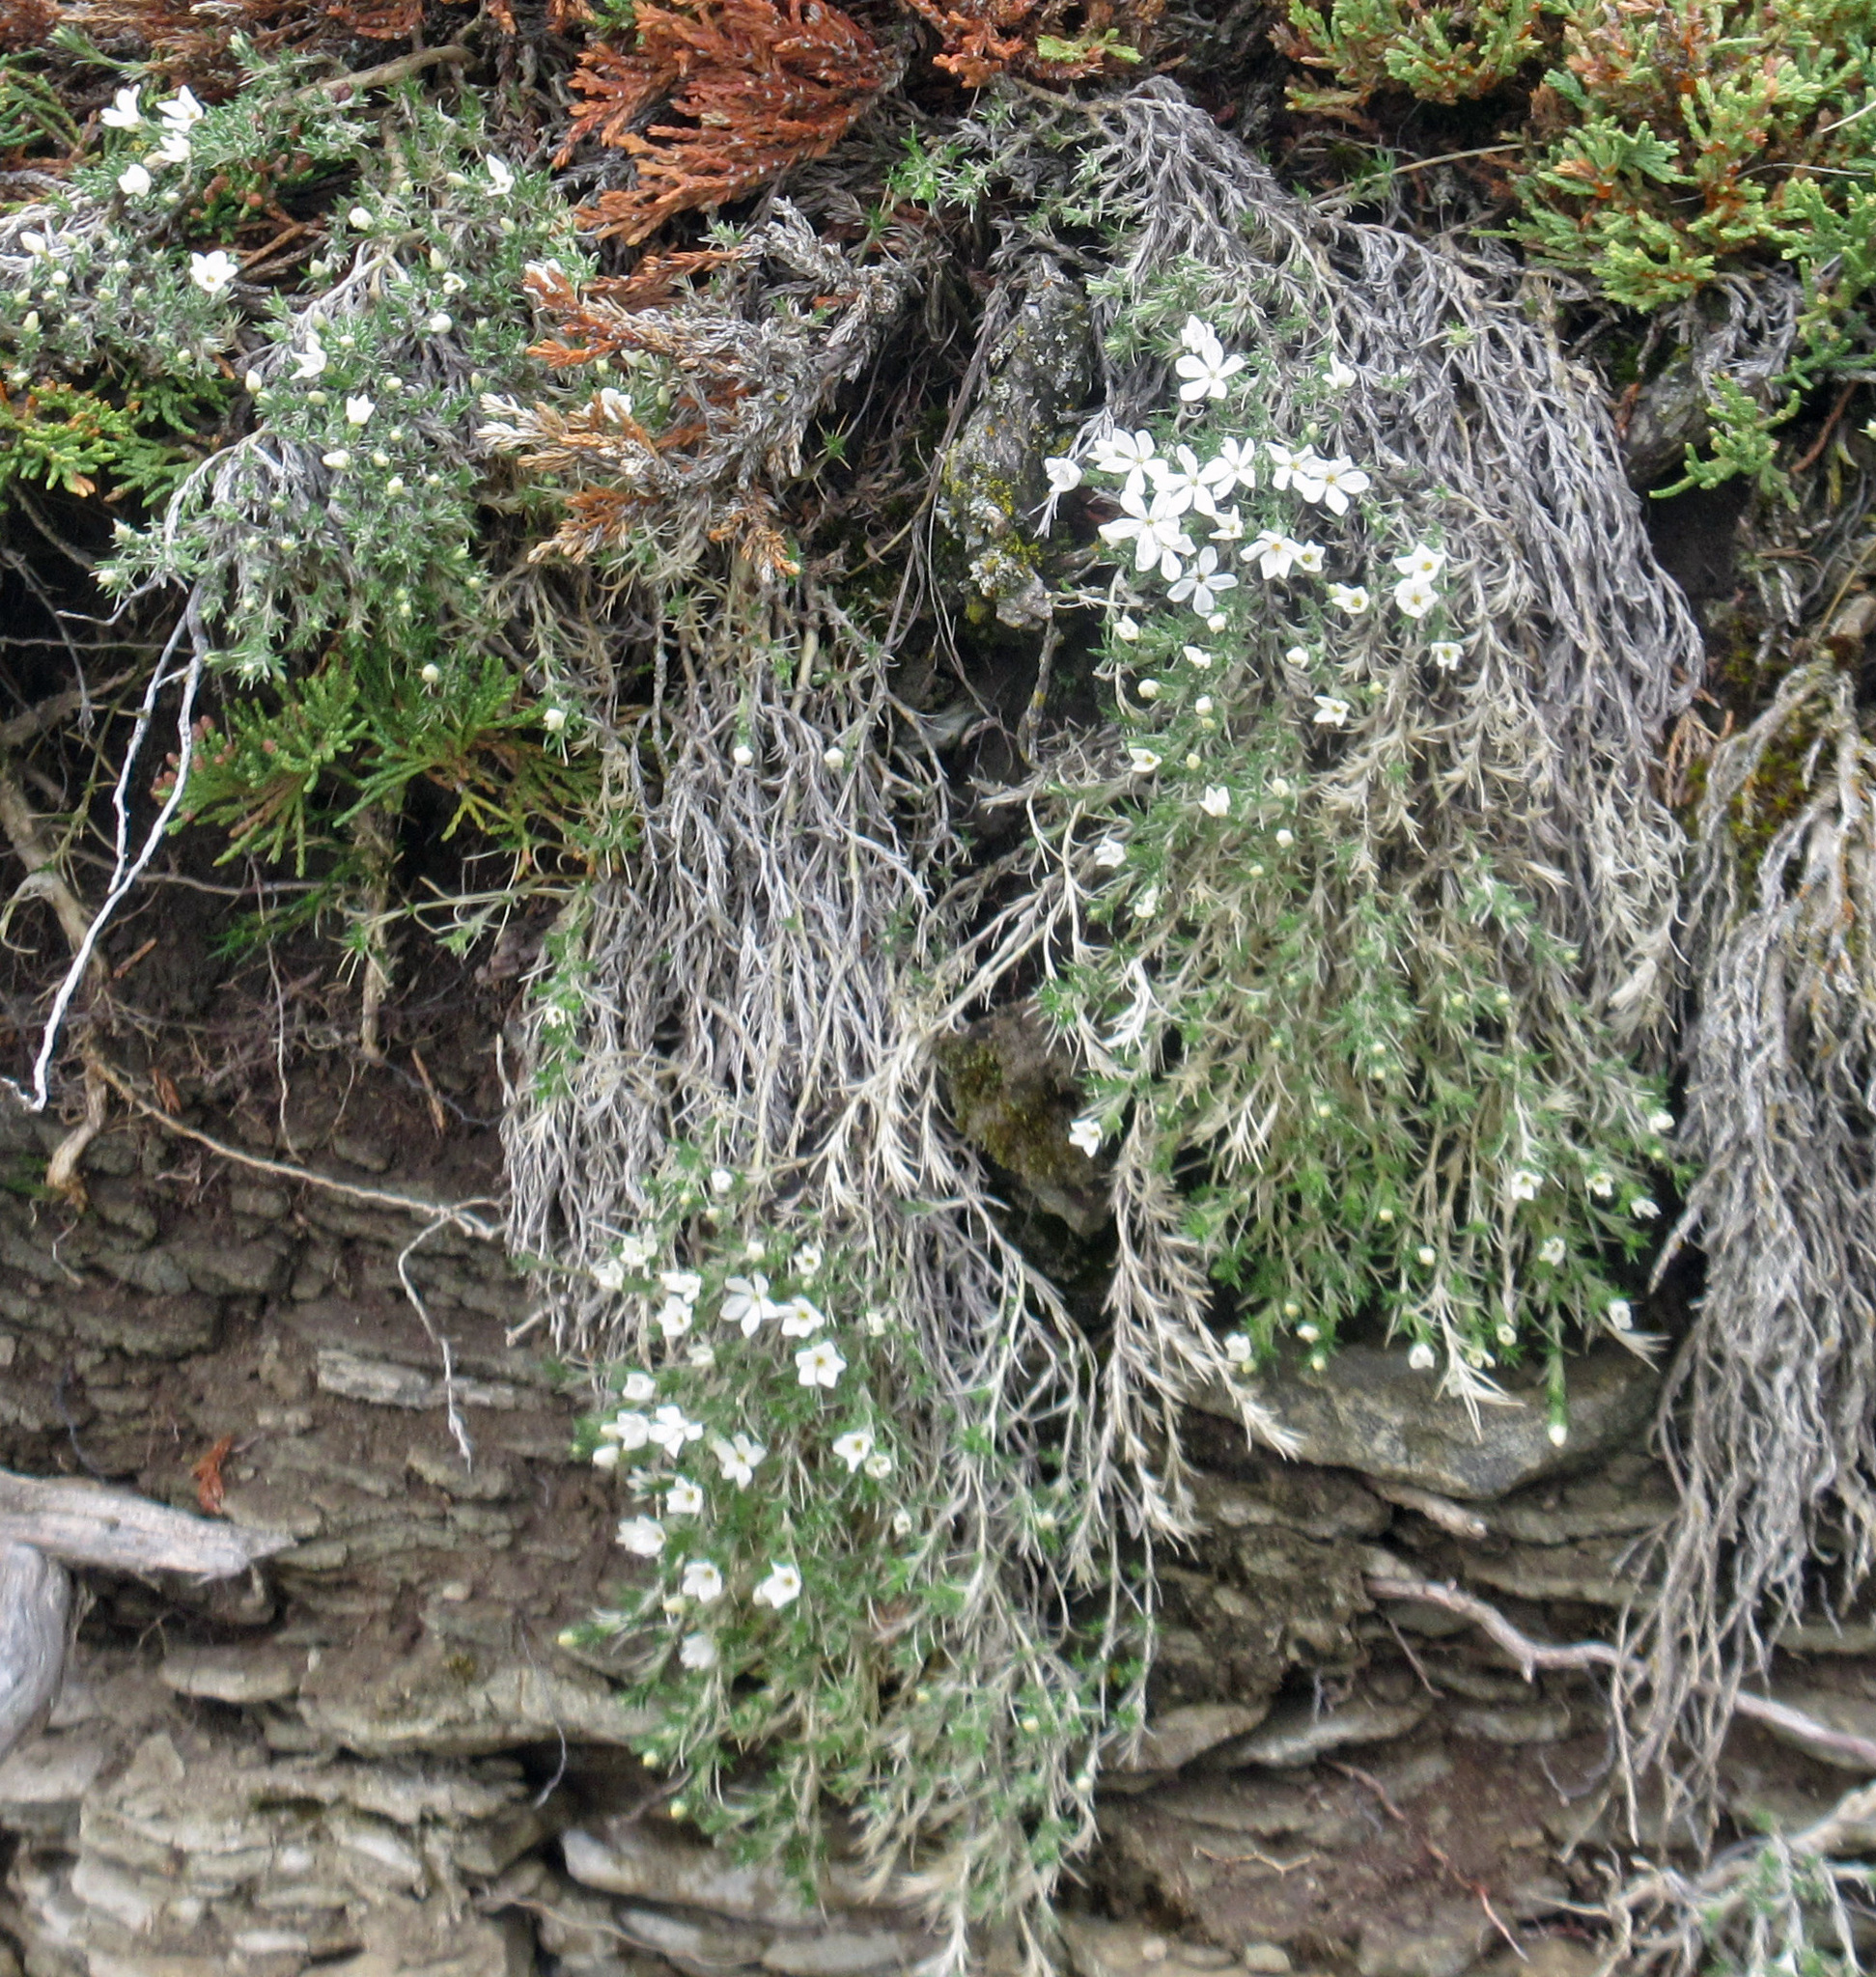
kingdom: Plantae
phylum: Tracheophyta
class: Magnoliopsida
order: Ericales
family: Polemoniaceae
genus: Phlox
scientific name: Phlox hoodii
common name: Moss phlox
